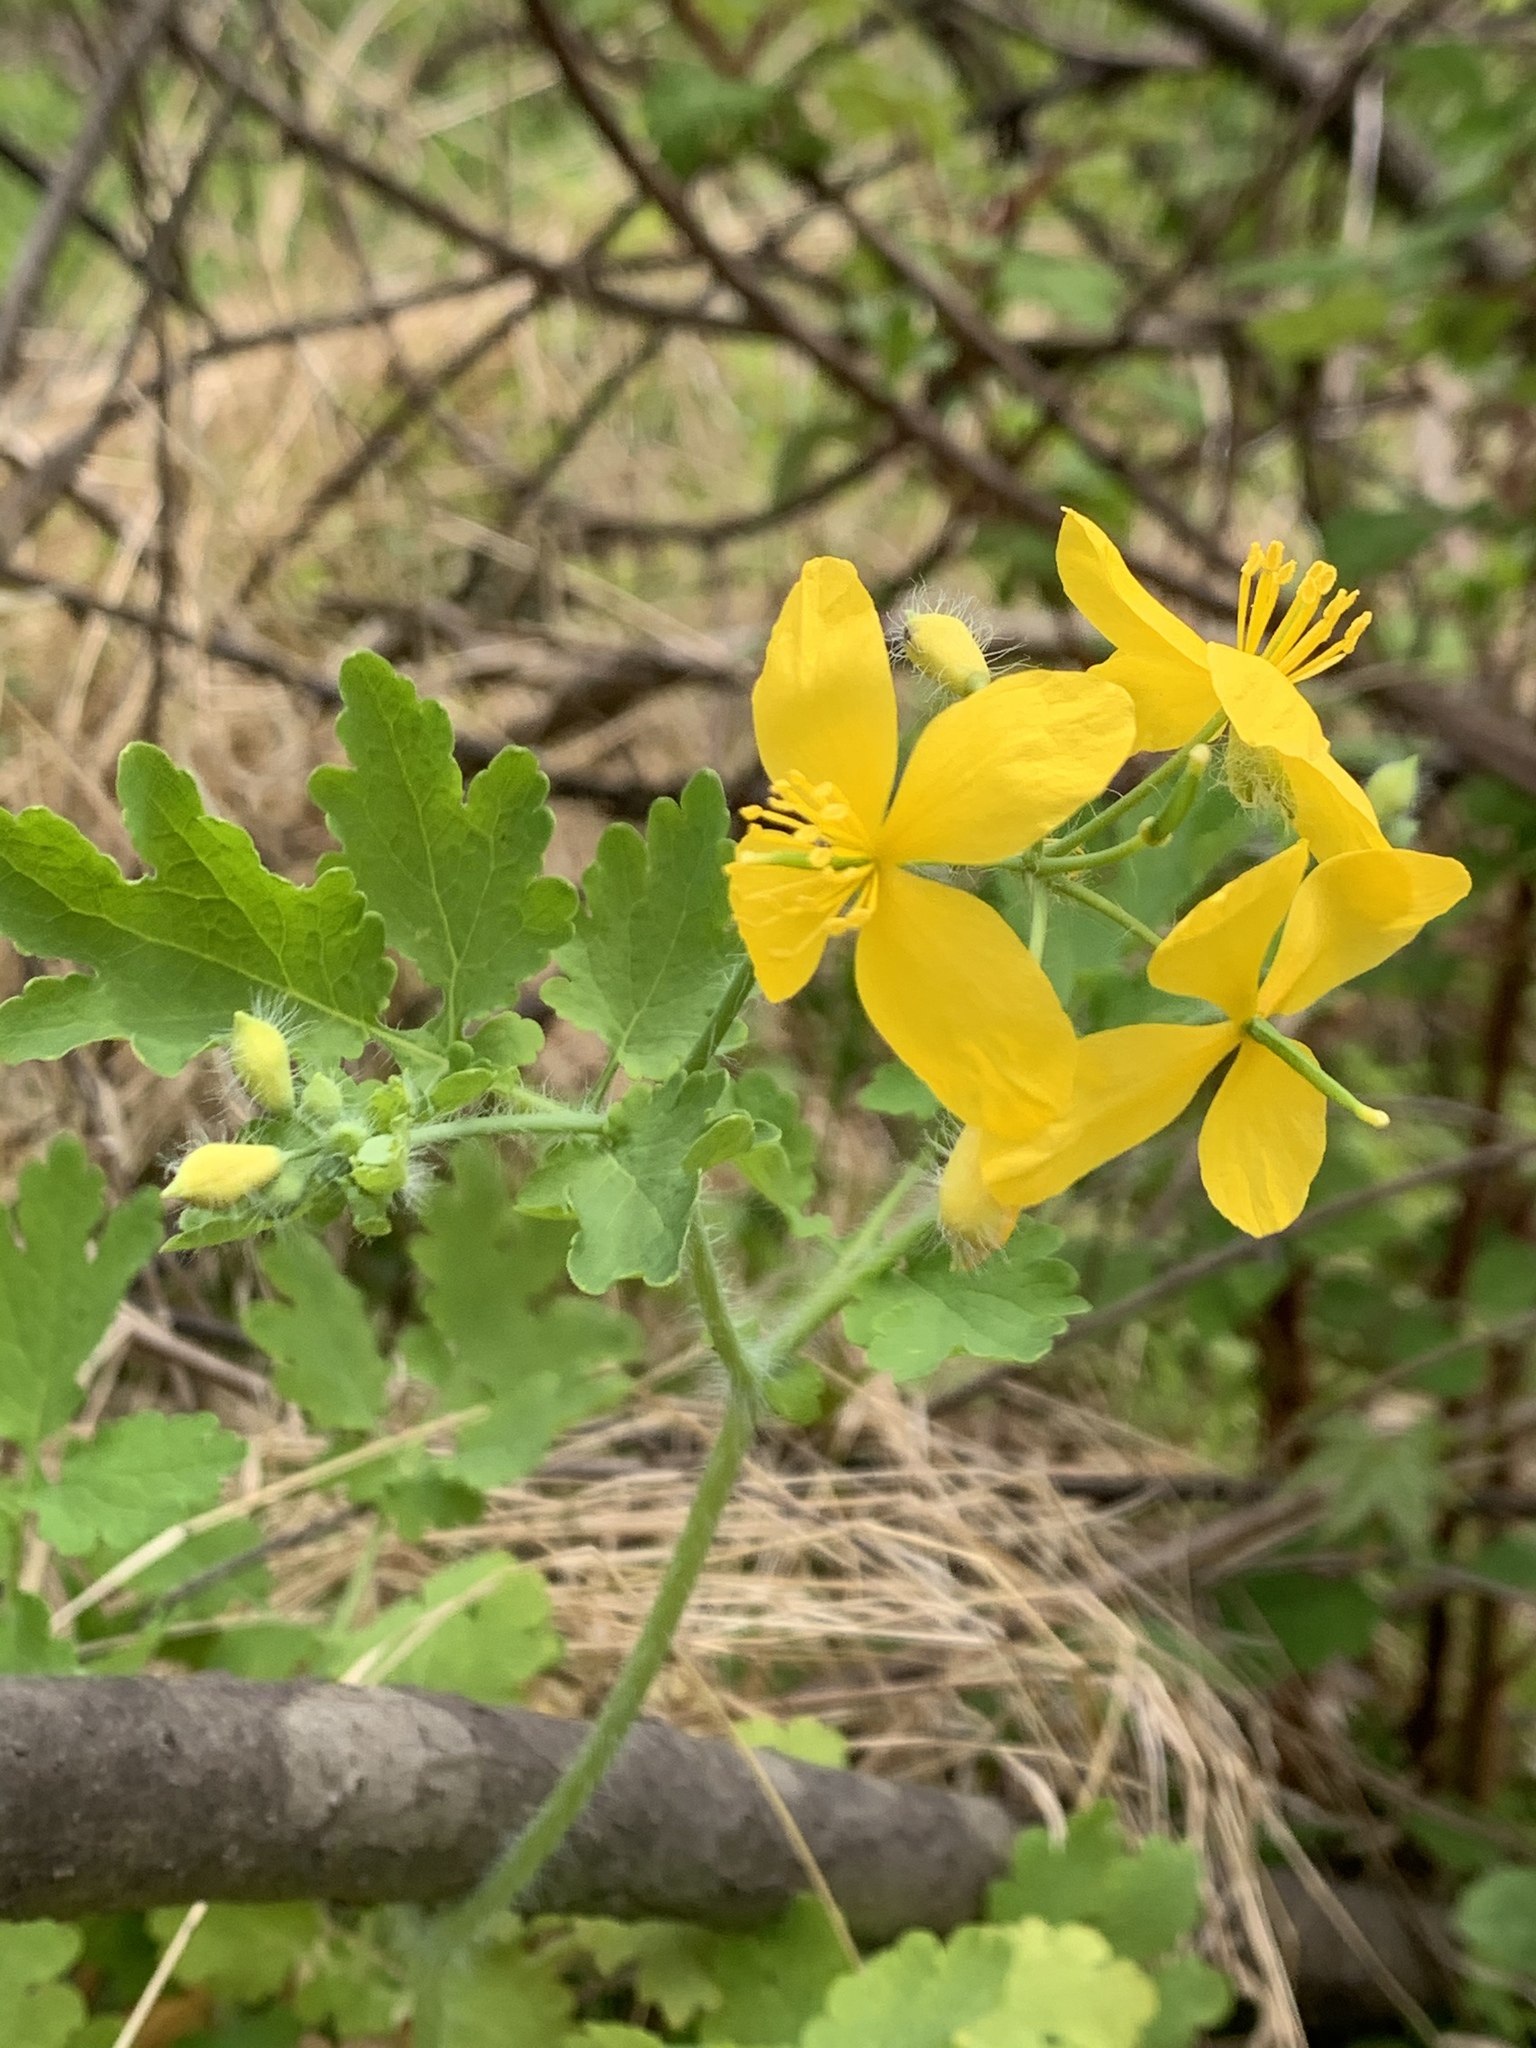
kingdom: Plantae
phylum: Tracheophyta
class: Magnoliopsida
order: Ranunculales
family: Papaveraceae
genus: Chelidonium
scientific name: Chelidonium majus
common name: Greater celandine
